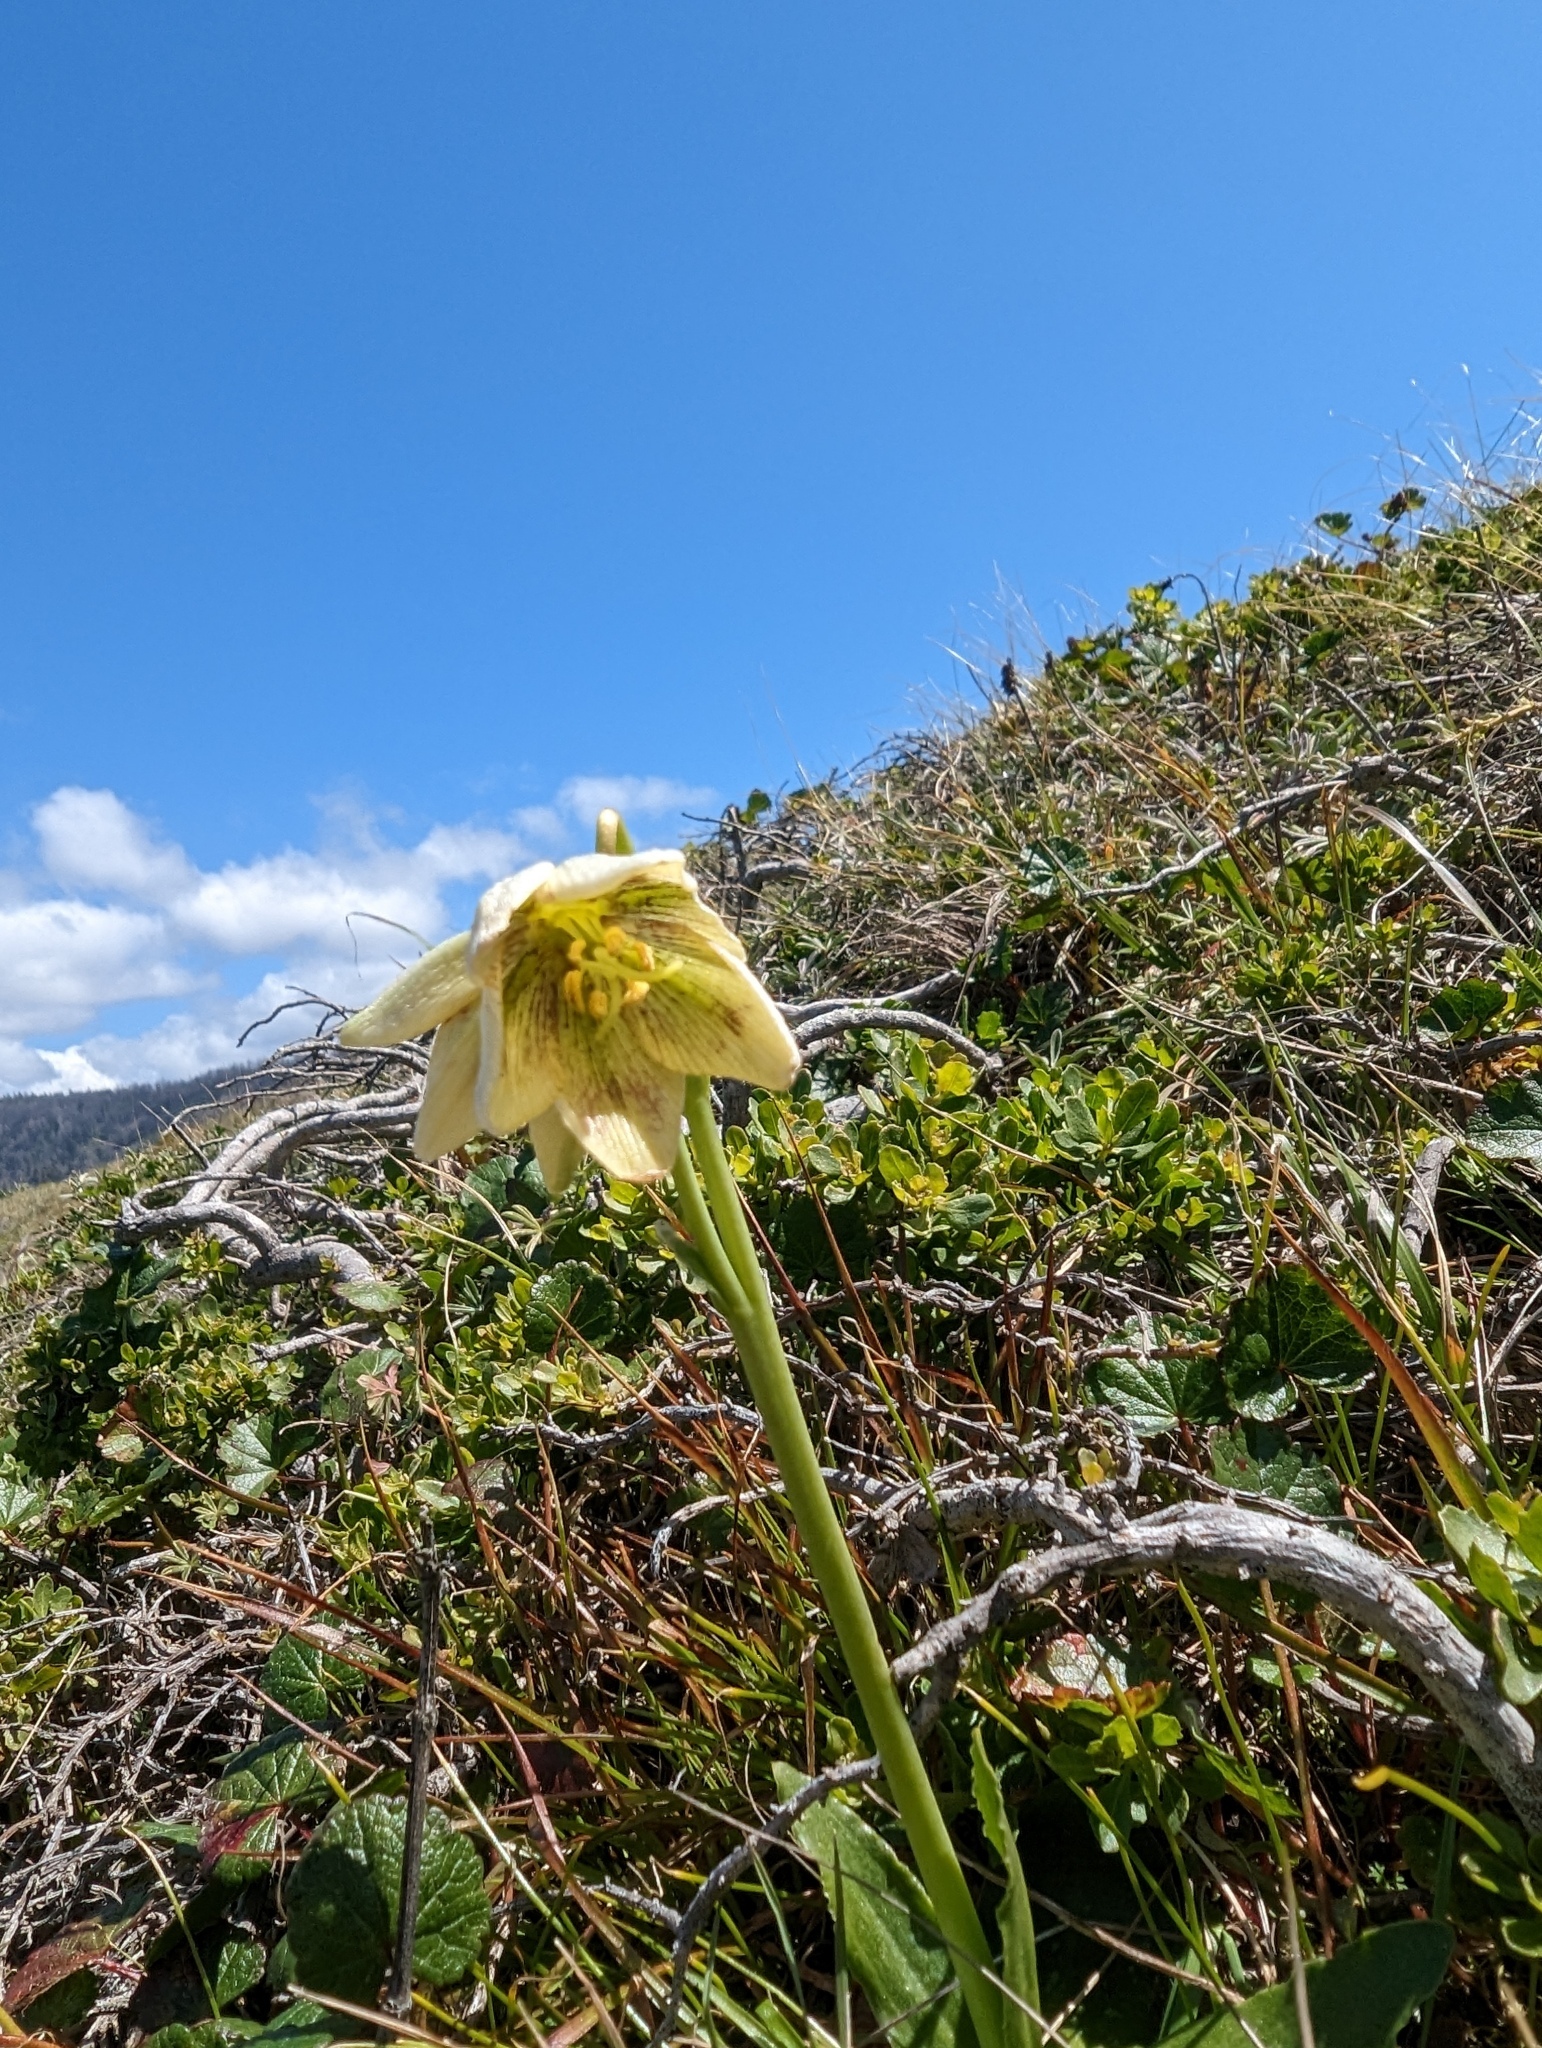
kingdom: Plantae
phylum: Tracheophyta
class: Liliopsida
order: Liliales
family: Liliaceae
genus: Fritillaria
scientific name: Fritillaria liliacea
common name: Fragrant fritillary
